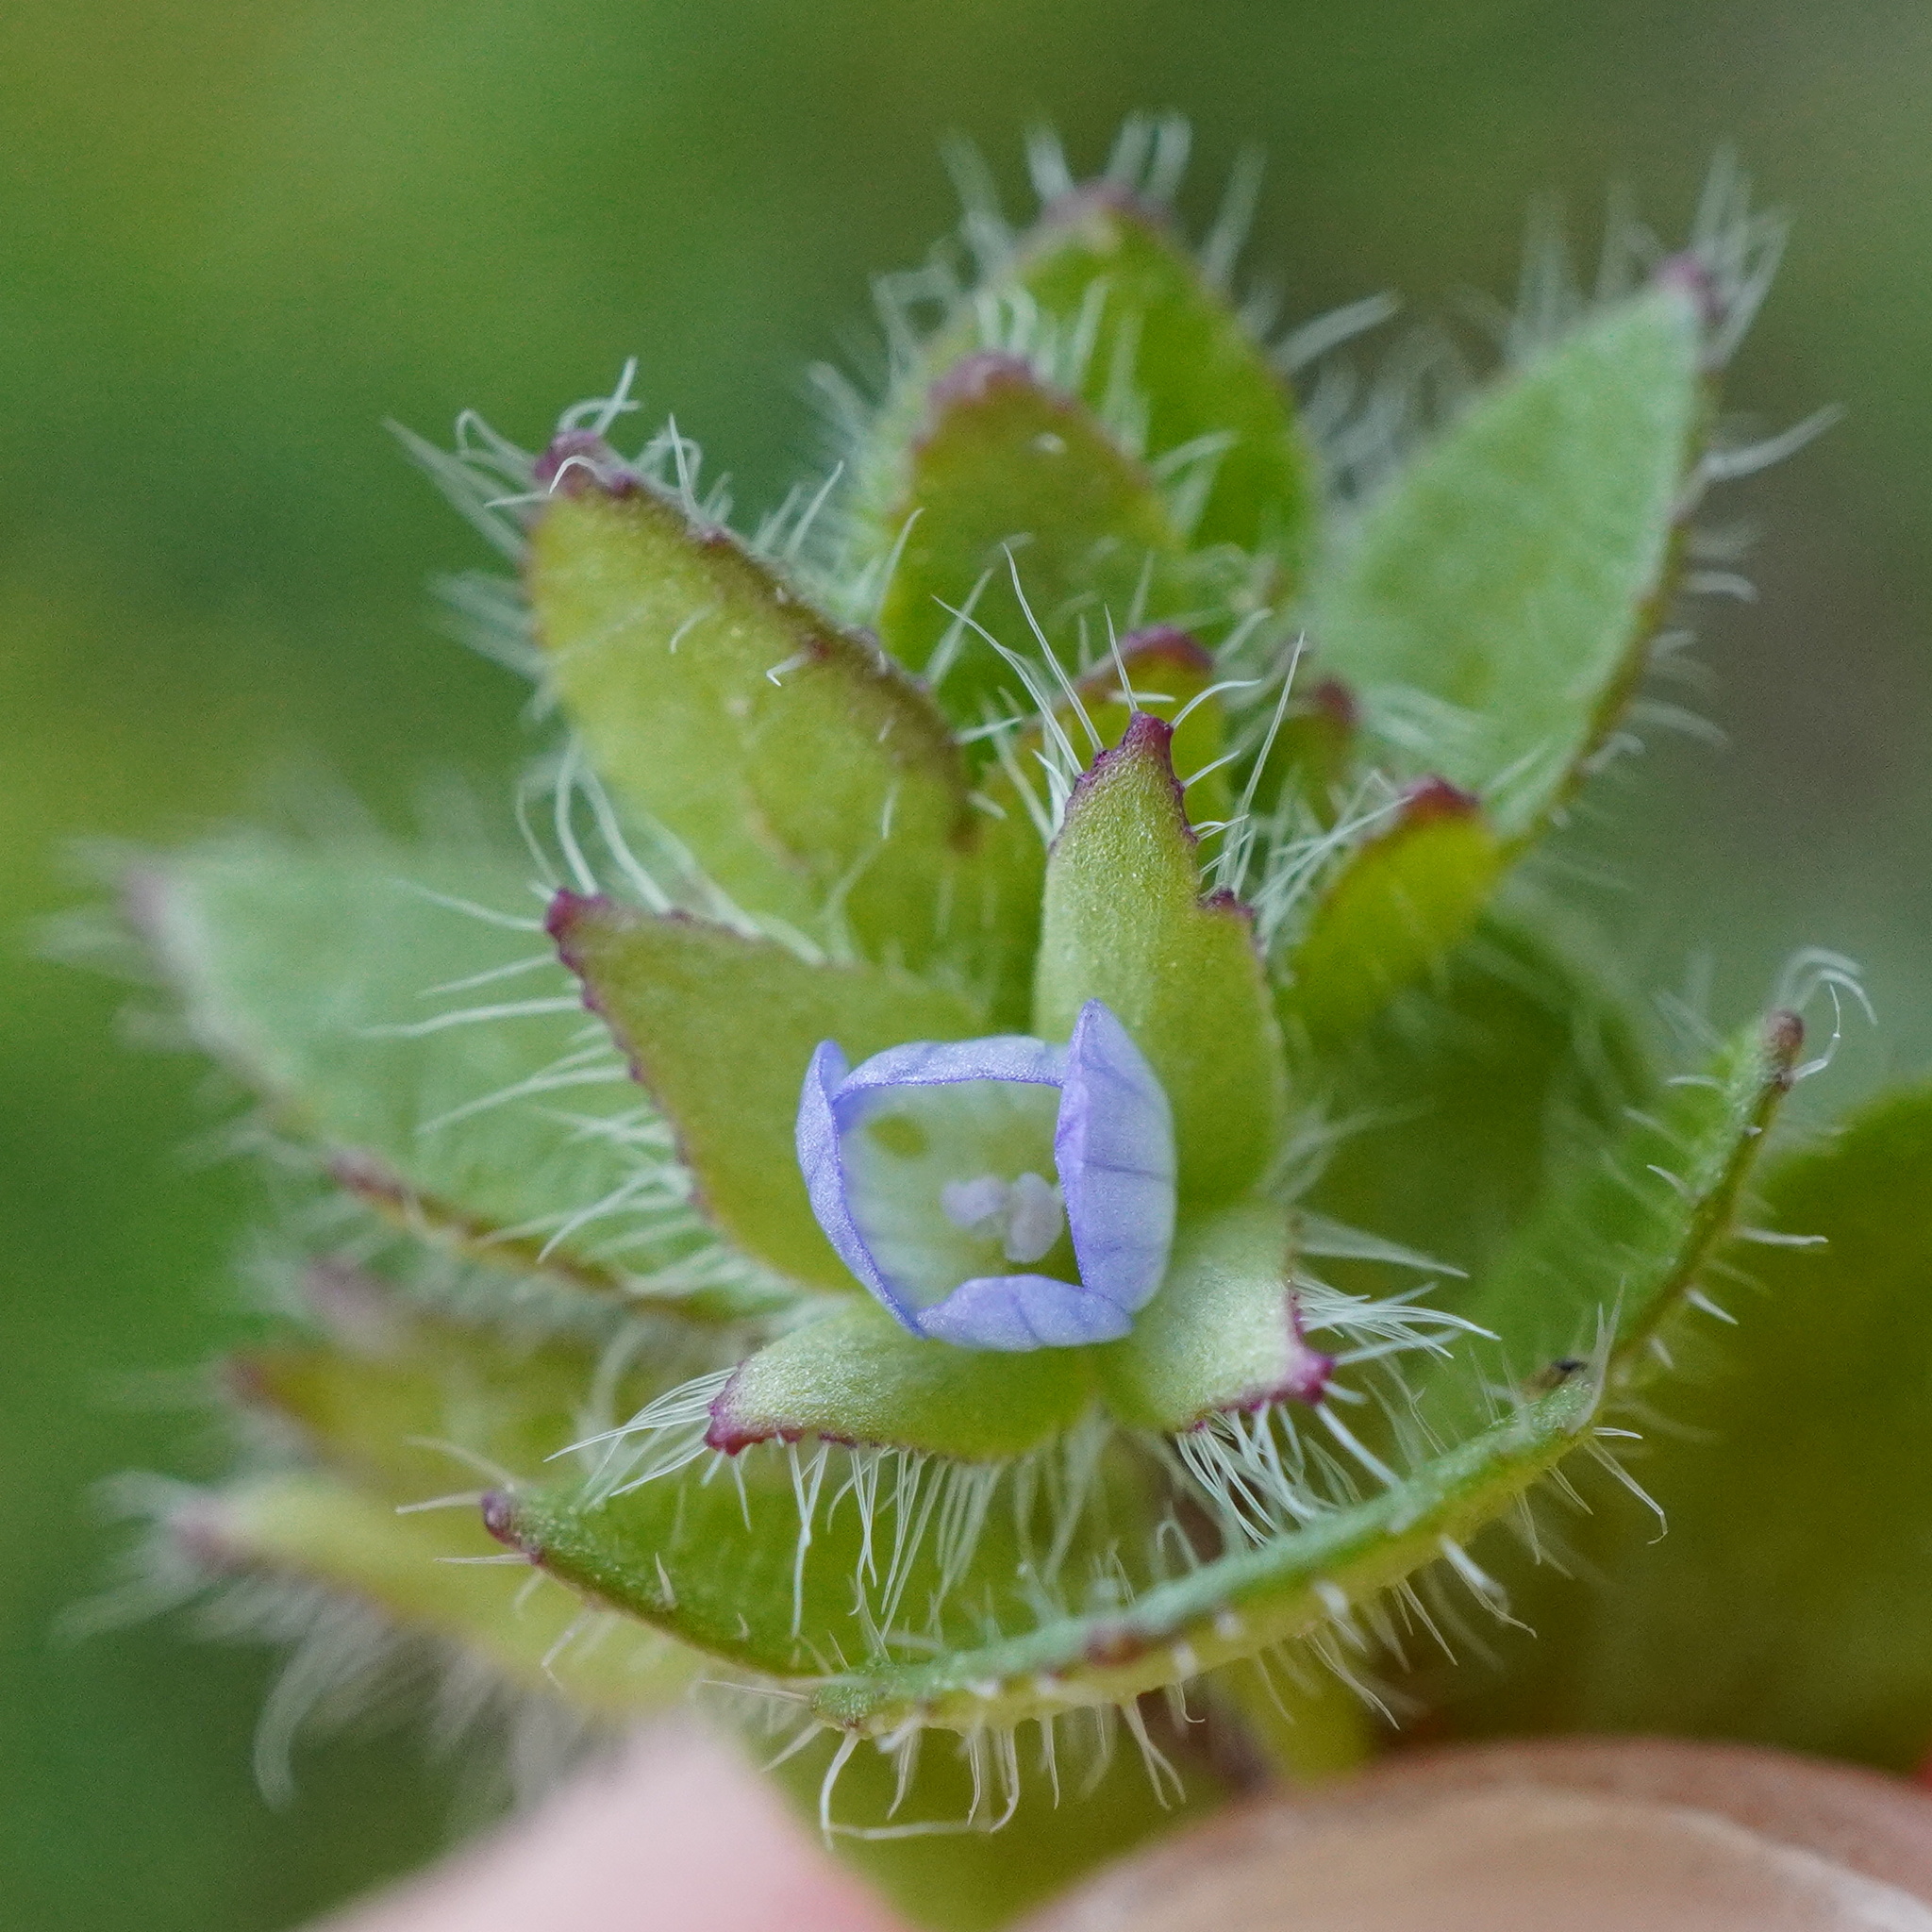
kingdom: Plantae
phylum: Tracheophyta
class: Magnoliopsida
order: Lamiales
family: Plantaginaceae
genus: Veronica
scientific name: Veronica hederifolia
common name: Ivy-leaved speedwell
